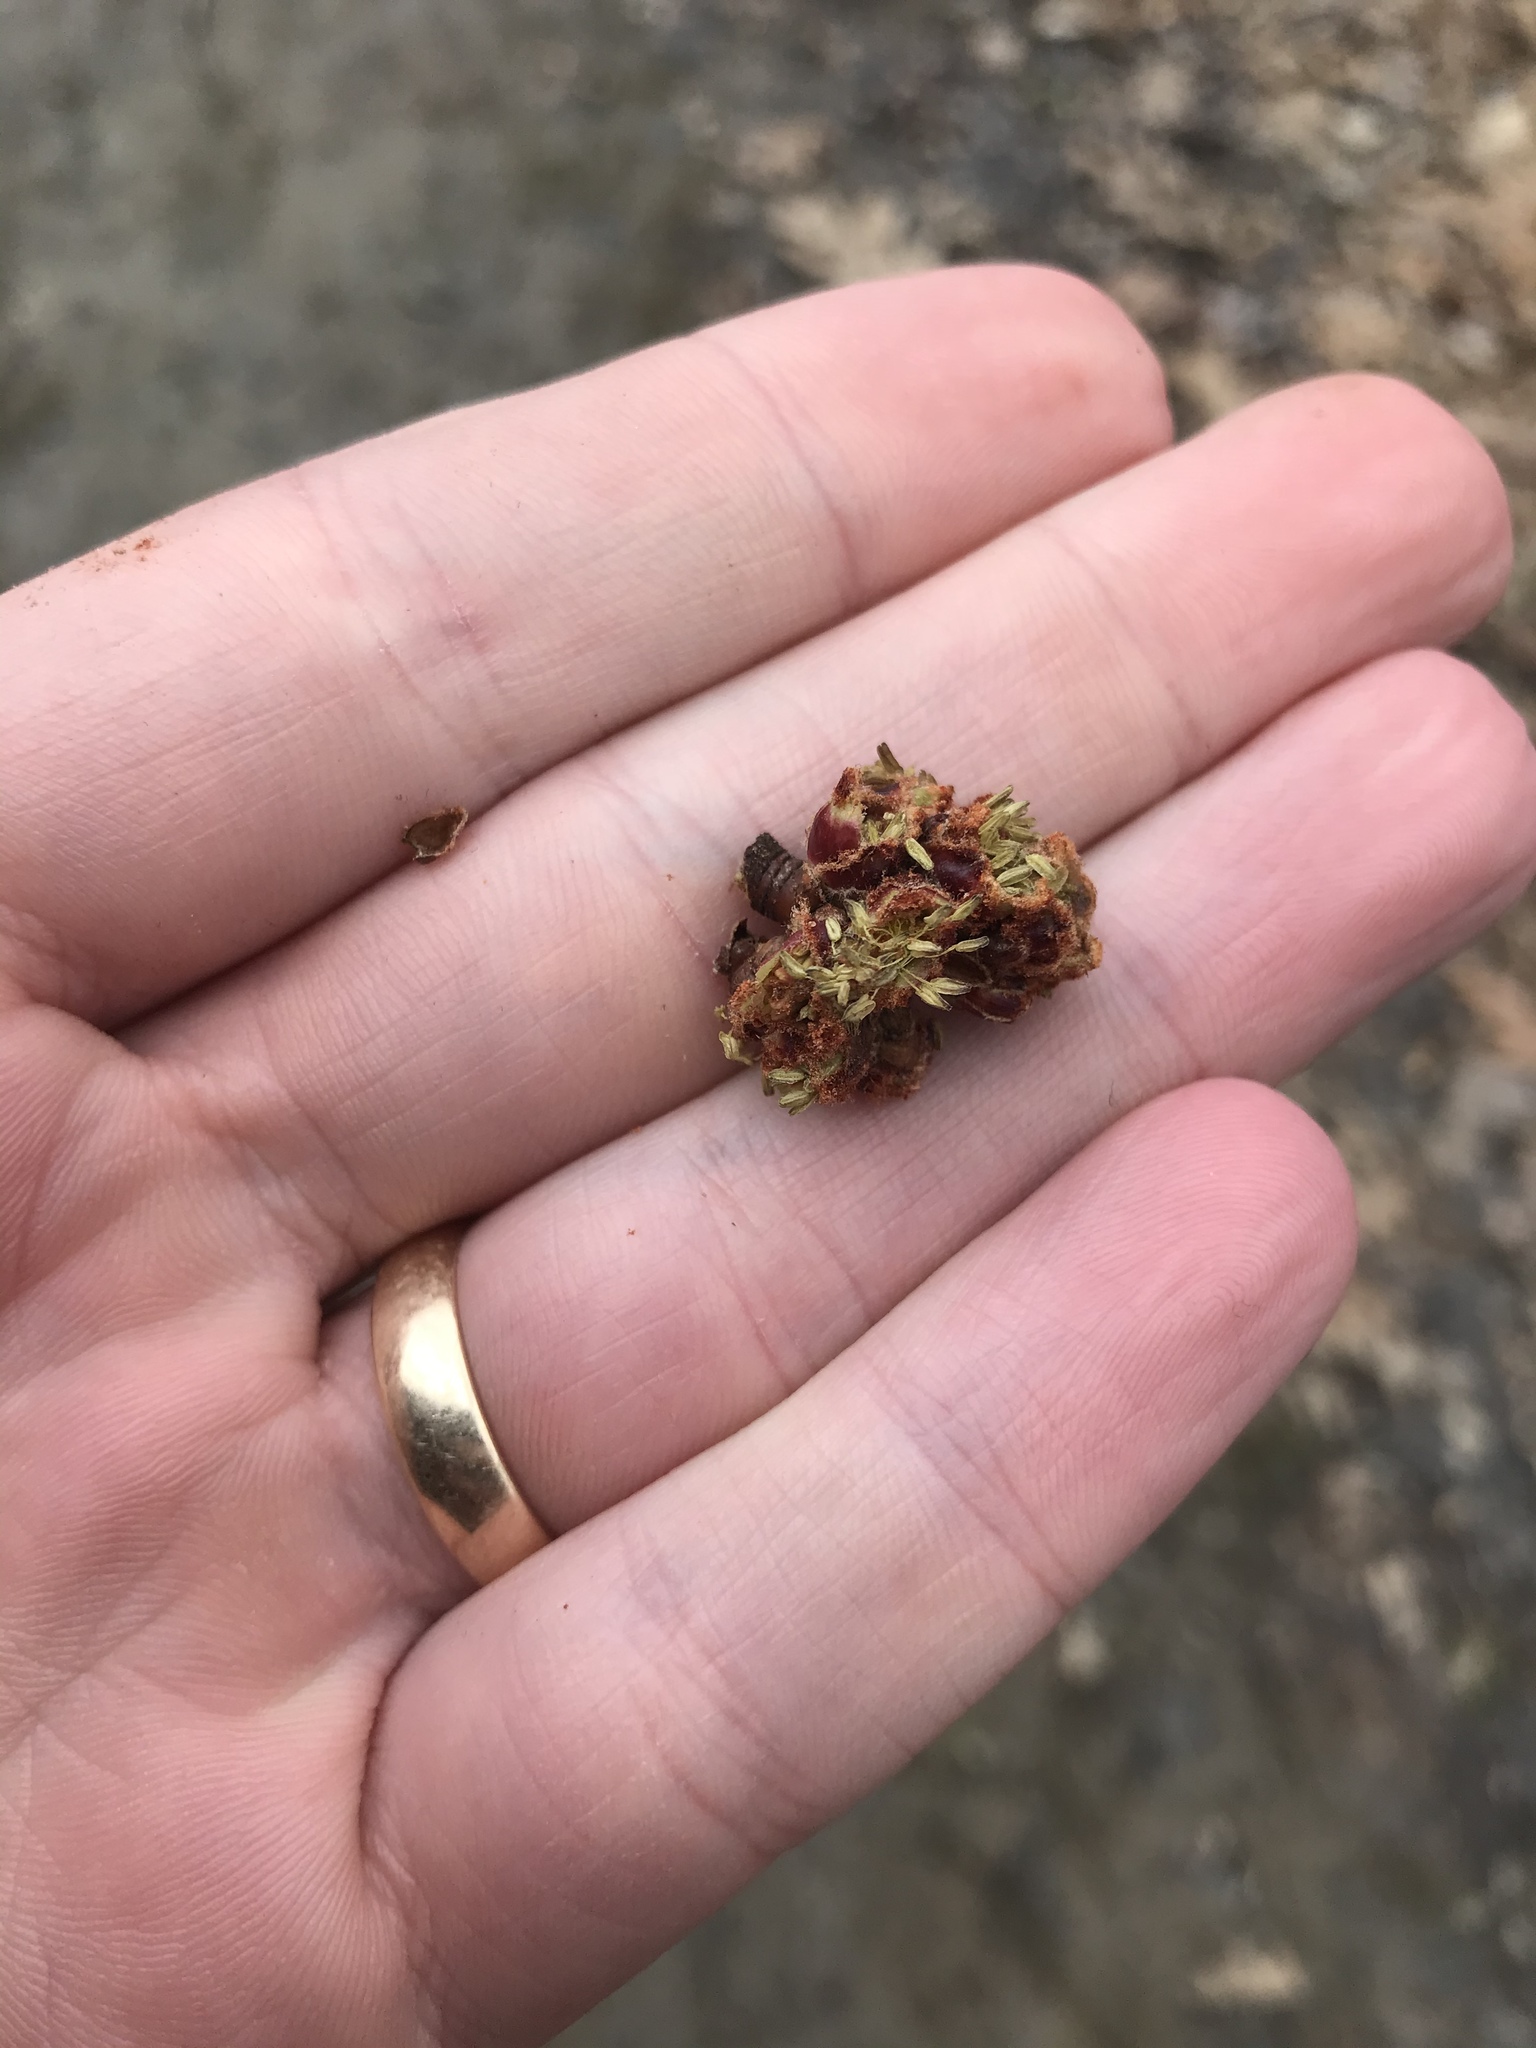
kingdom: Plantae
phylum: Tracheophyta
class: Magnoliopsida
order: Sapindales
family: Sapindaceae
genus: Acer
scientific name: Acer saccharinum
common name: Silver maple
